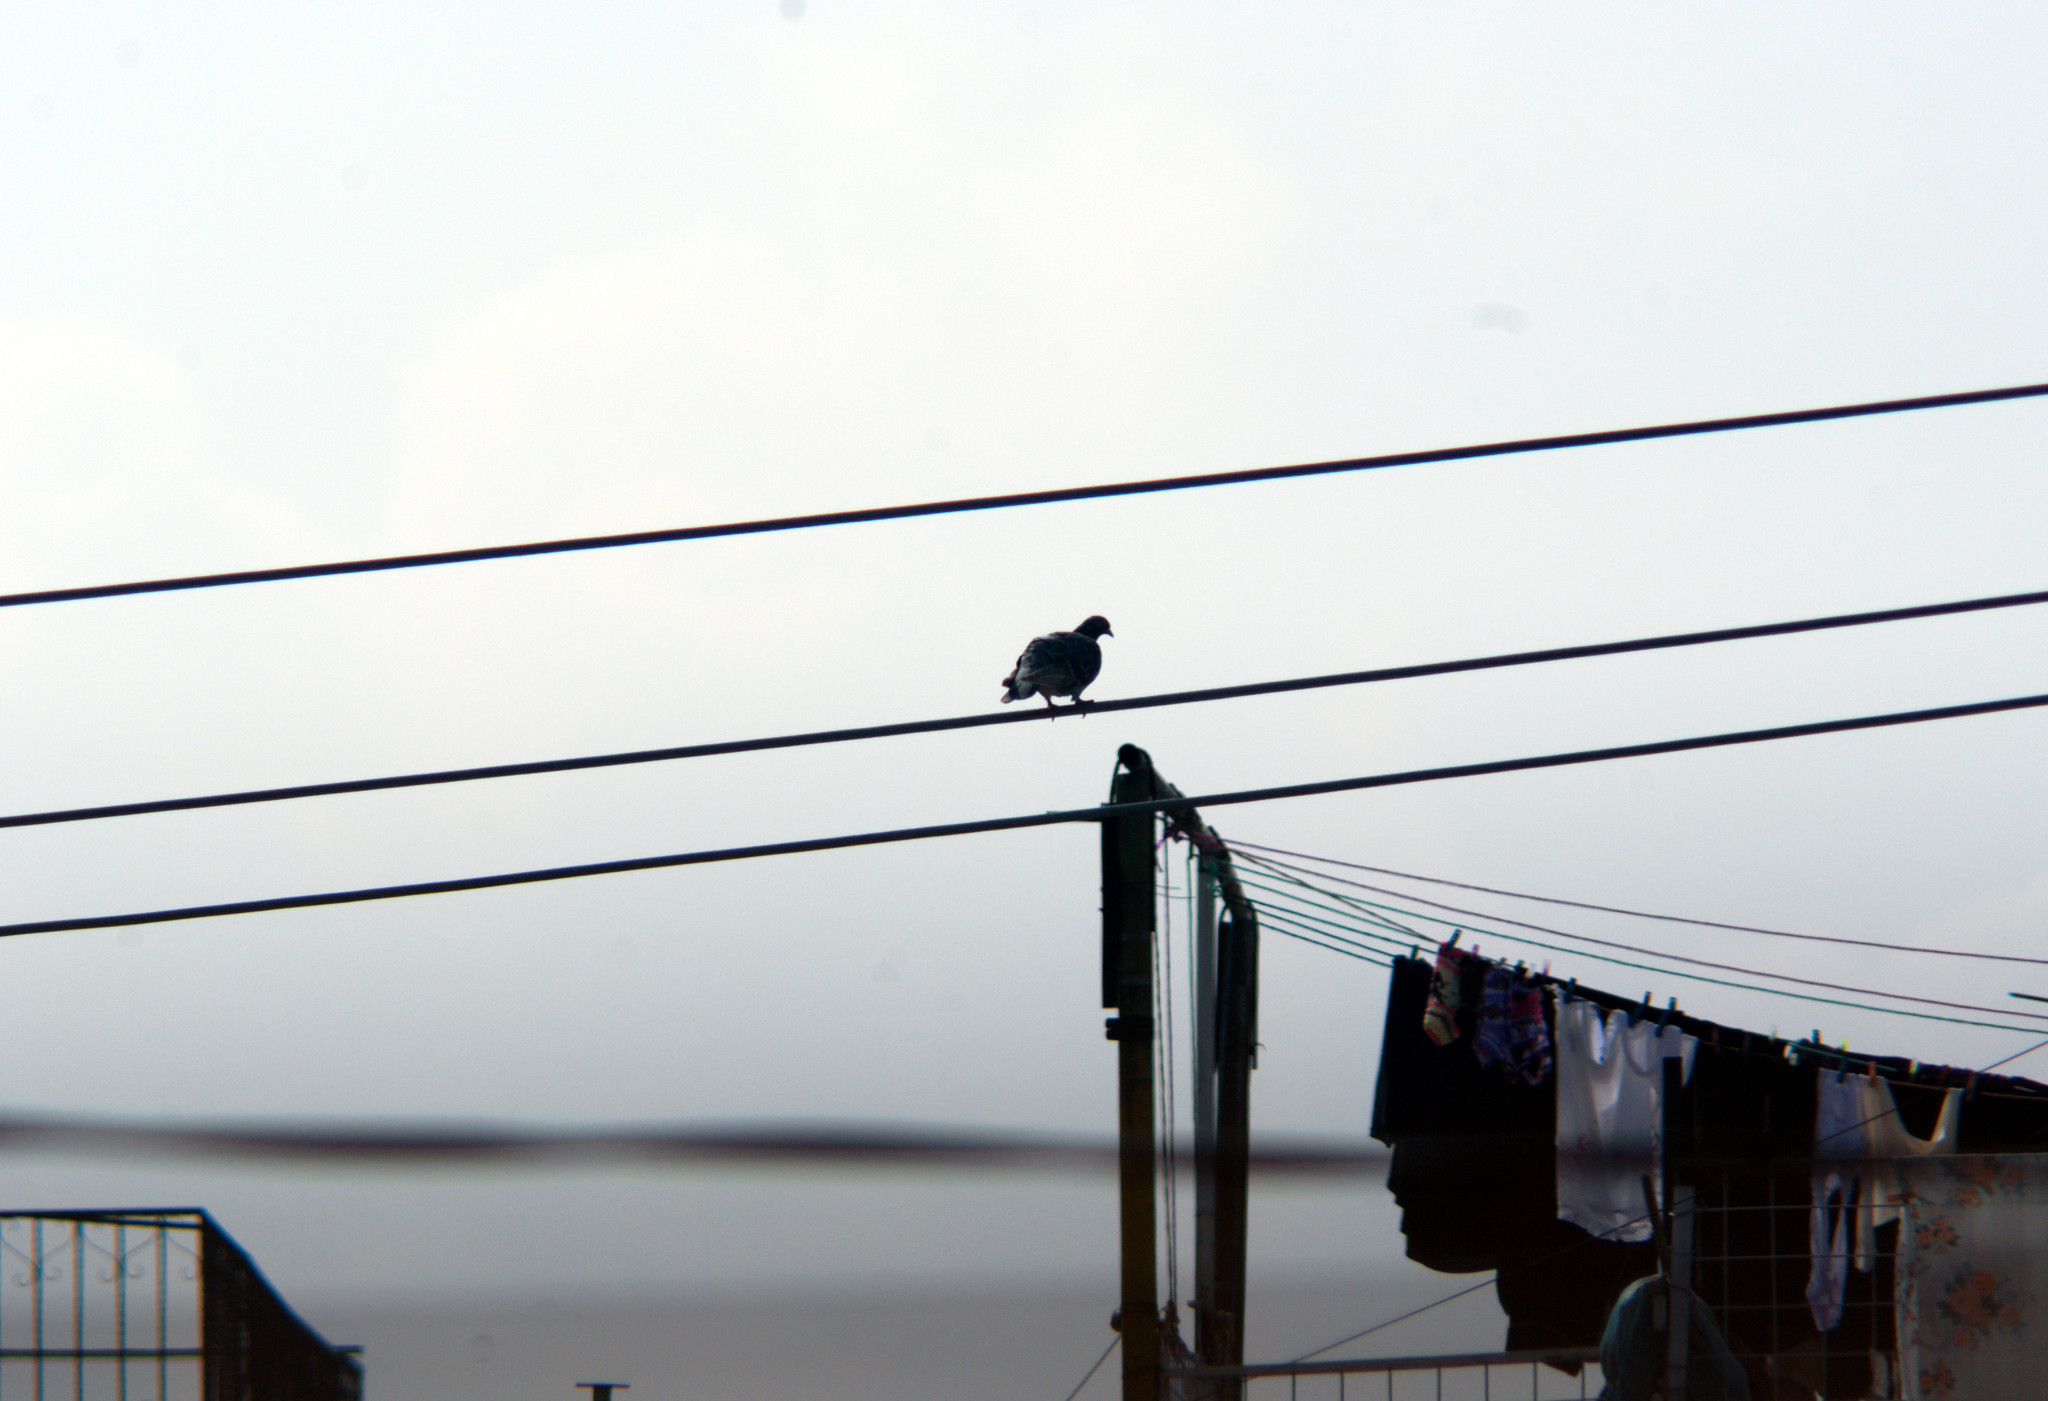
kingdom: Animalia
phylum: Chordata
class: Aves
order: Columbiformes
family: Columbidae
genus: Columba
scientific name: Columba livia
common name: Rock pigeon
